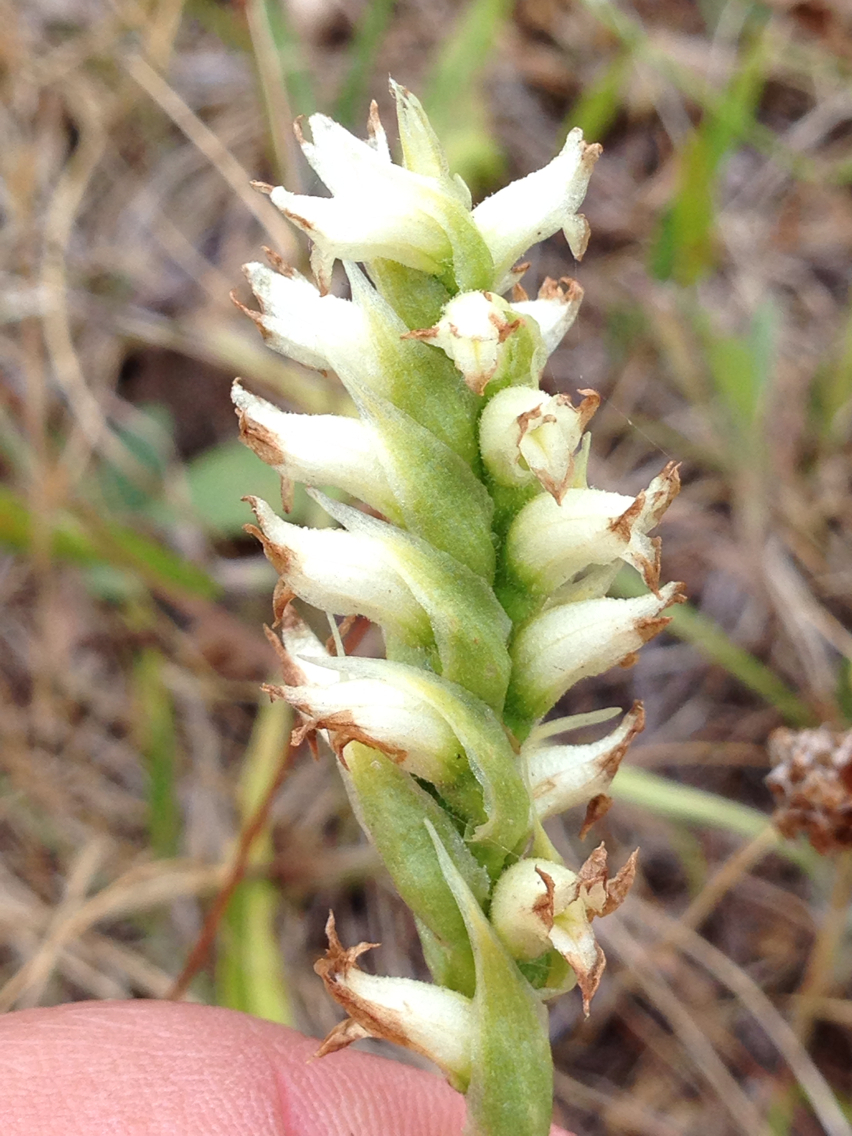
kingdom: Plantae
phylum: Tracheophyta
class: Liliopsida
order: Asparagales
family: Orchidaceae
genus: Spiranthes
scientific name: Spiranthes romanzoffiana
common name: Irish lady's-tresses
